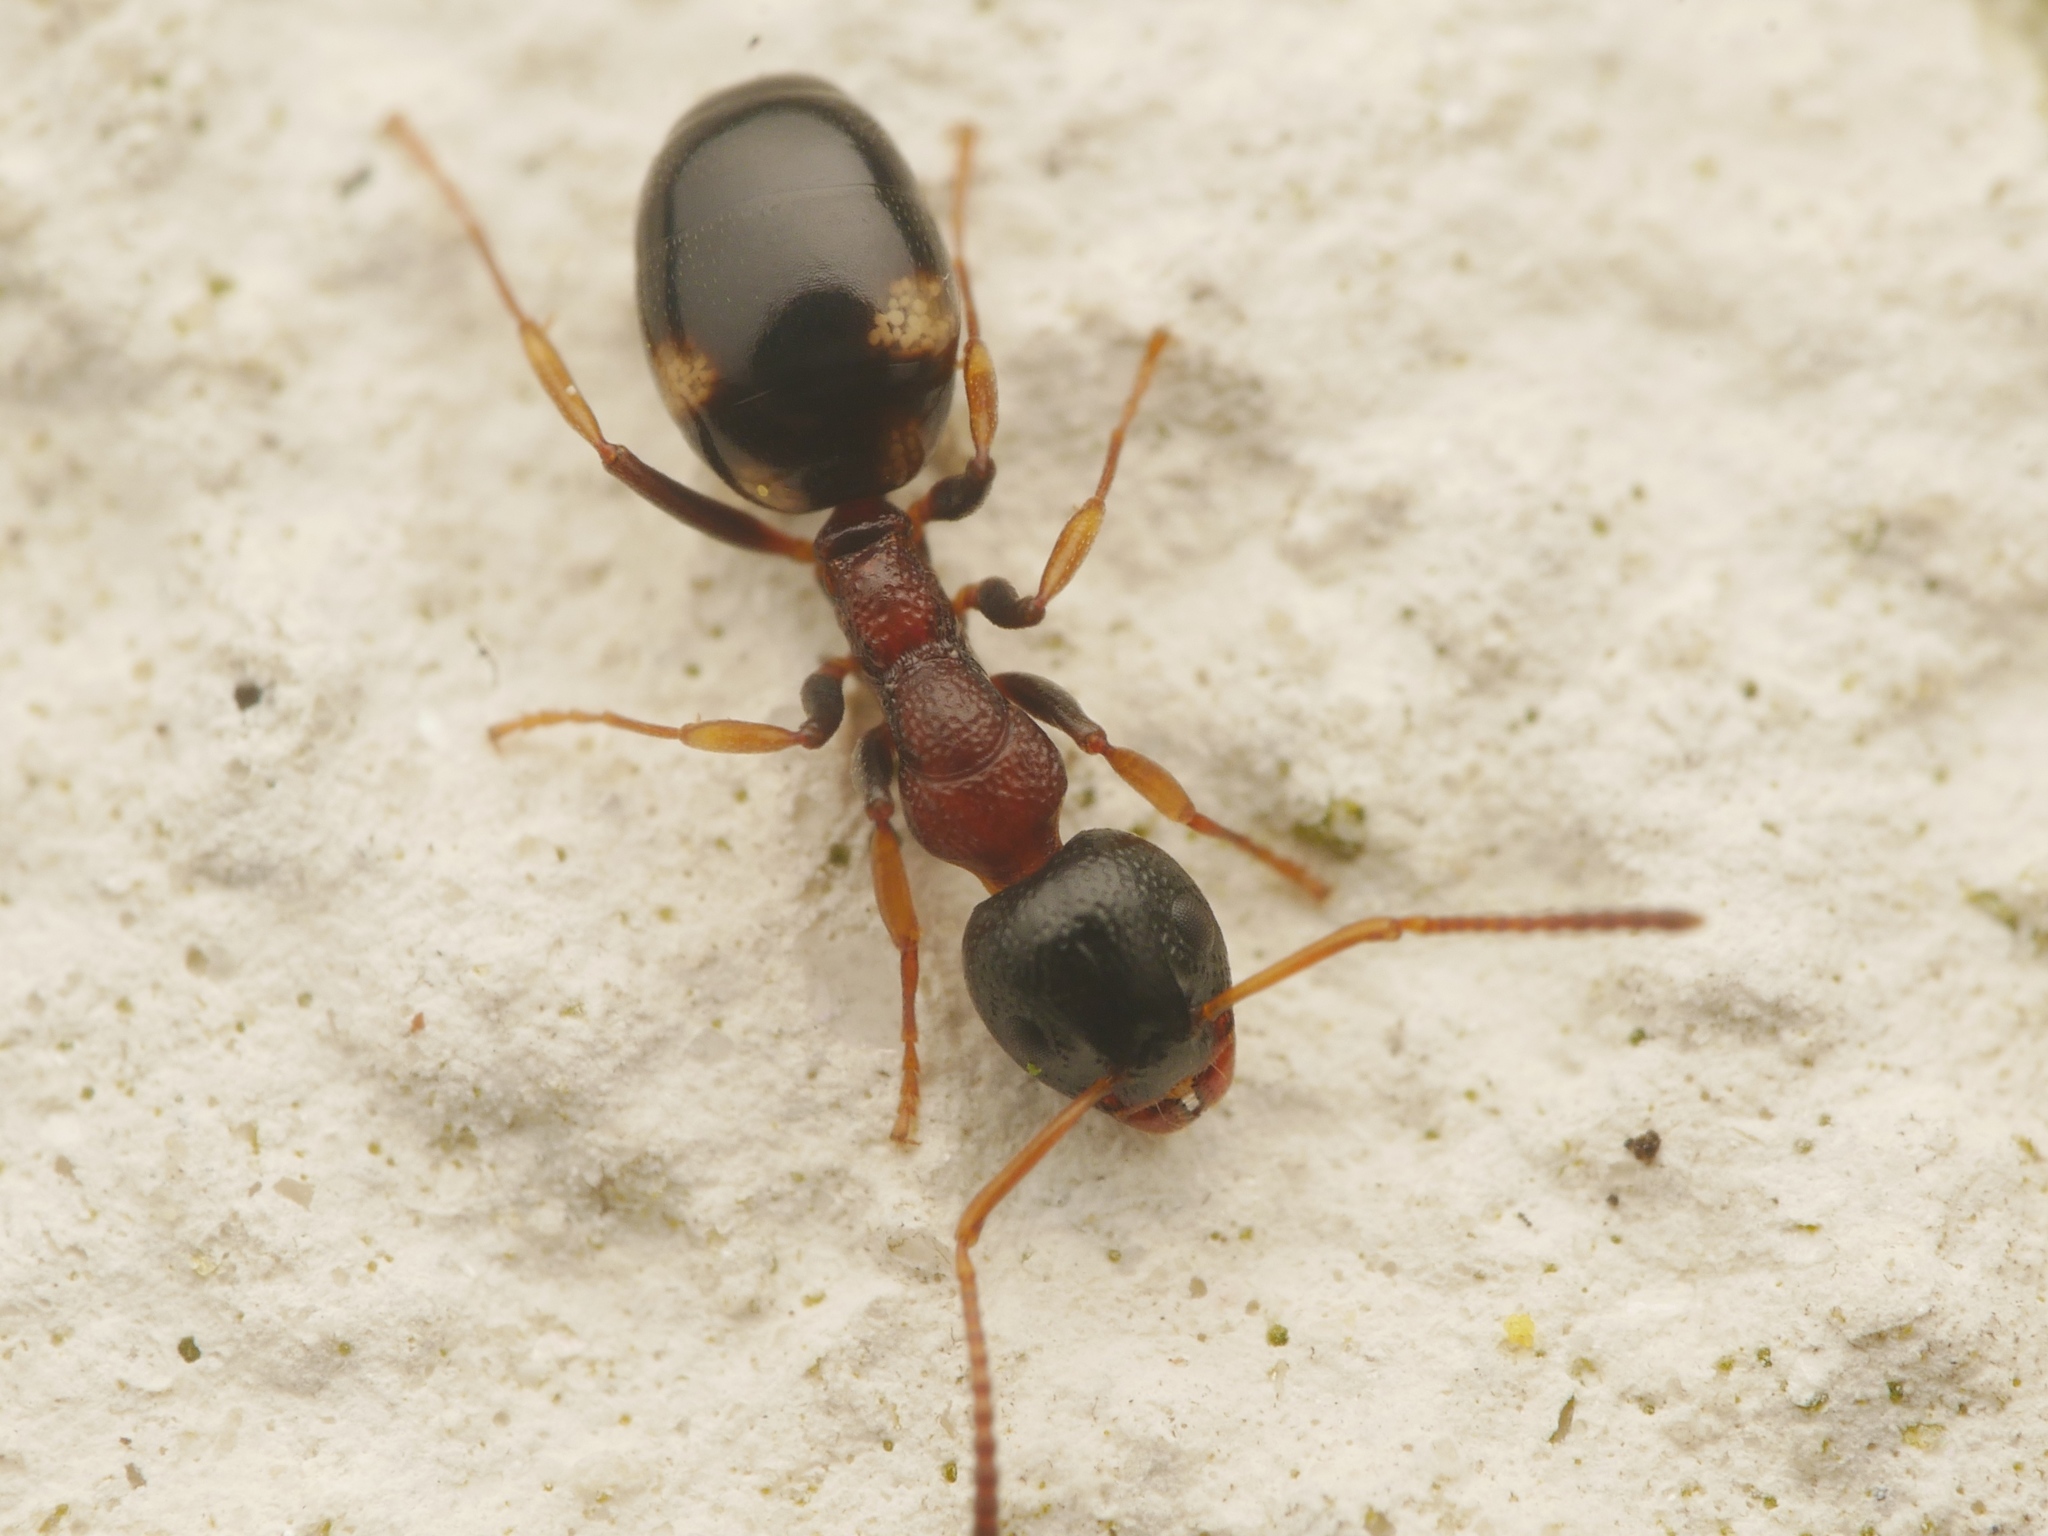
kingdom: Animalia
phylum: Arthropoda
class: Insecta
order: Hymenoptera
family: Formicidae
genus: Dolichoderus
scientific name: Dolichoderus quadripunctatus
